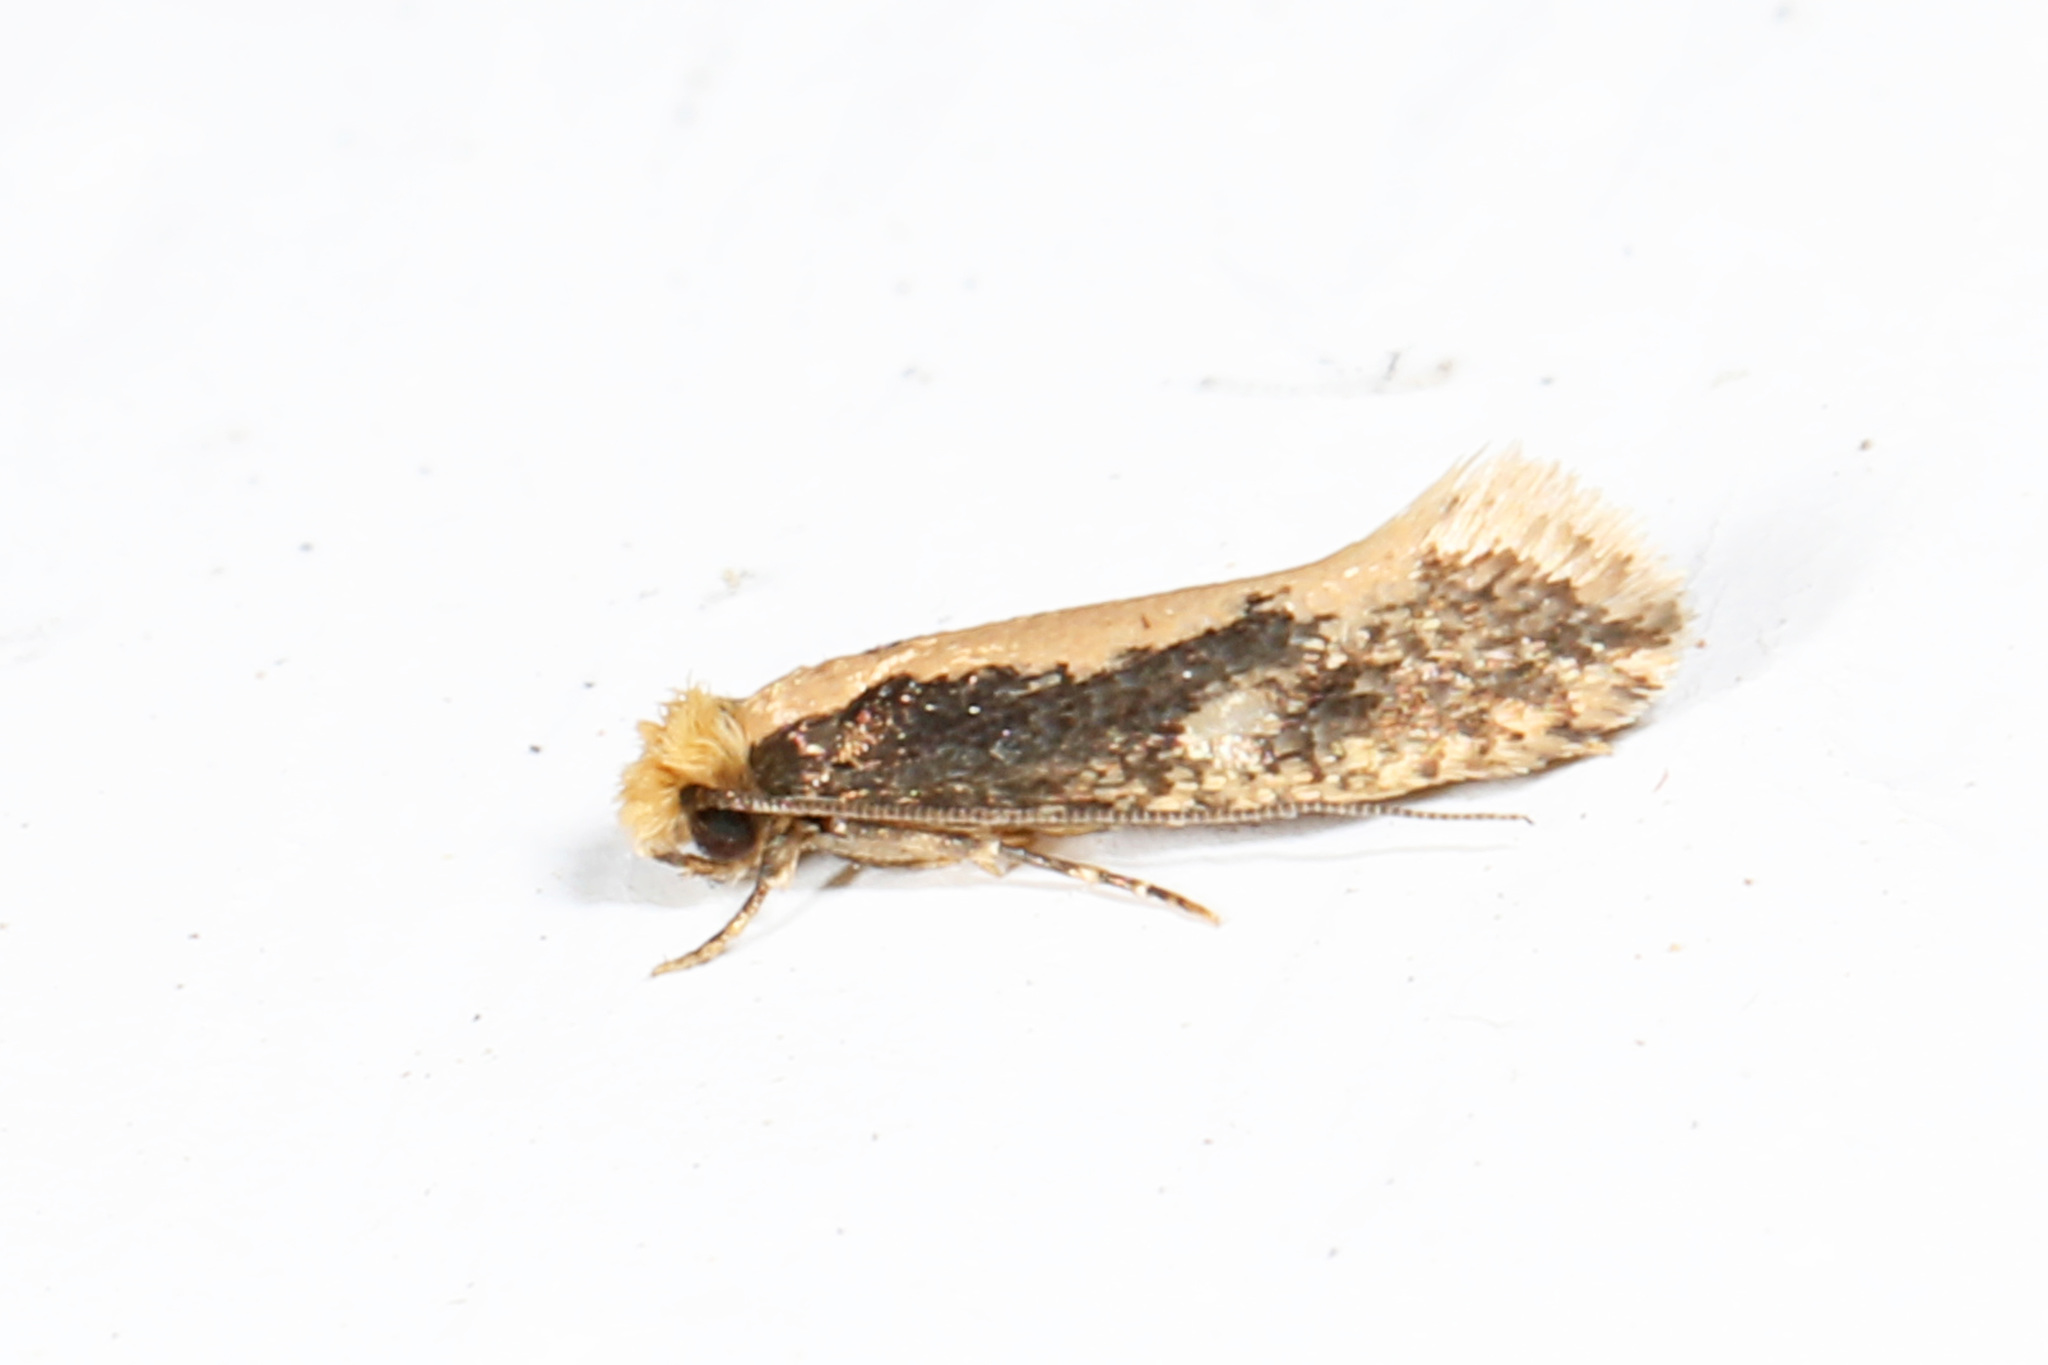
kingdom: Animalia
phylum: Arthropoda
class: Insecta
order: Lepidoptera
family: Tineidae
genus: Monopis
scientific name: Monopis crocicapitella
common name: Moth
